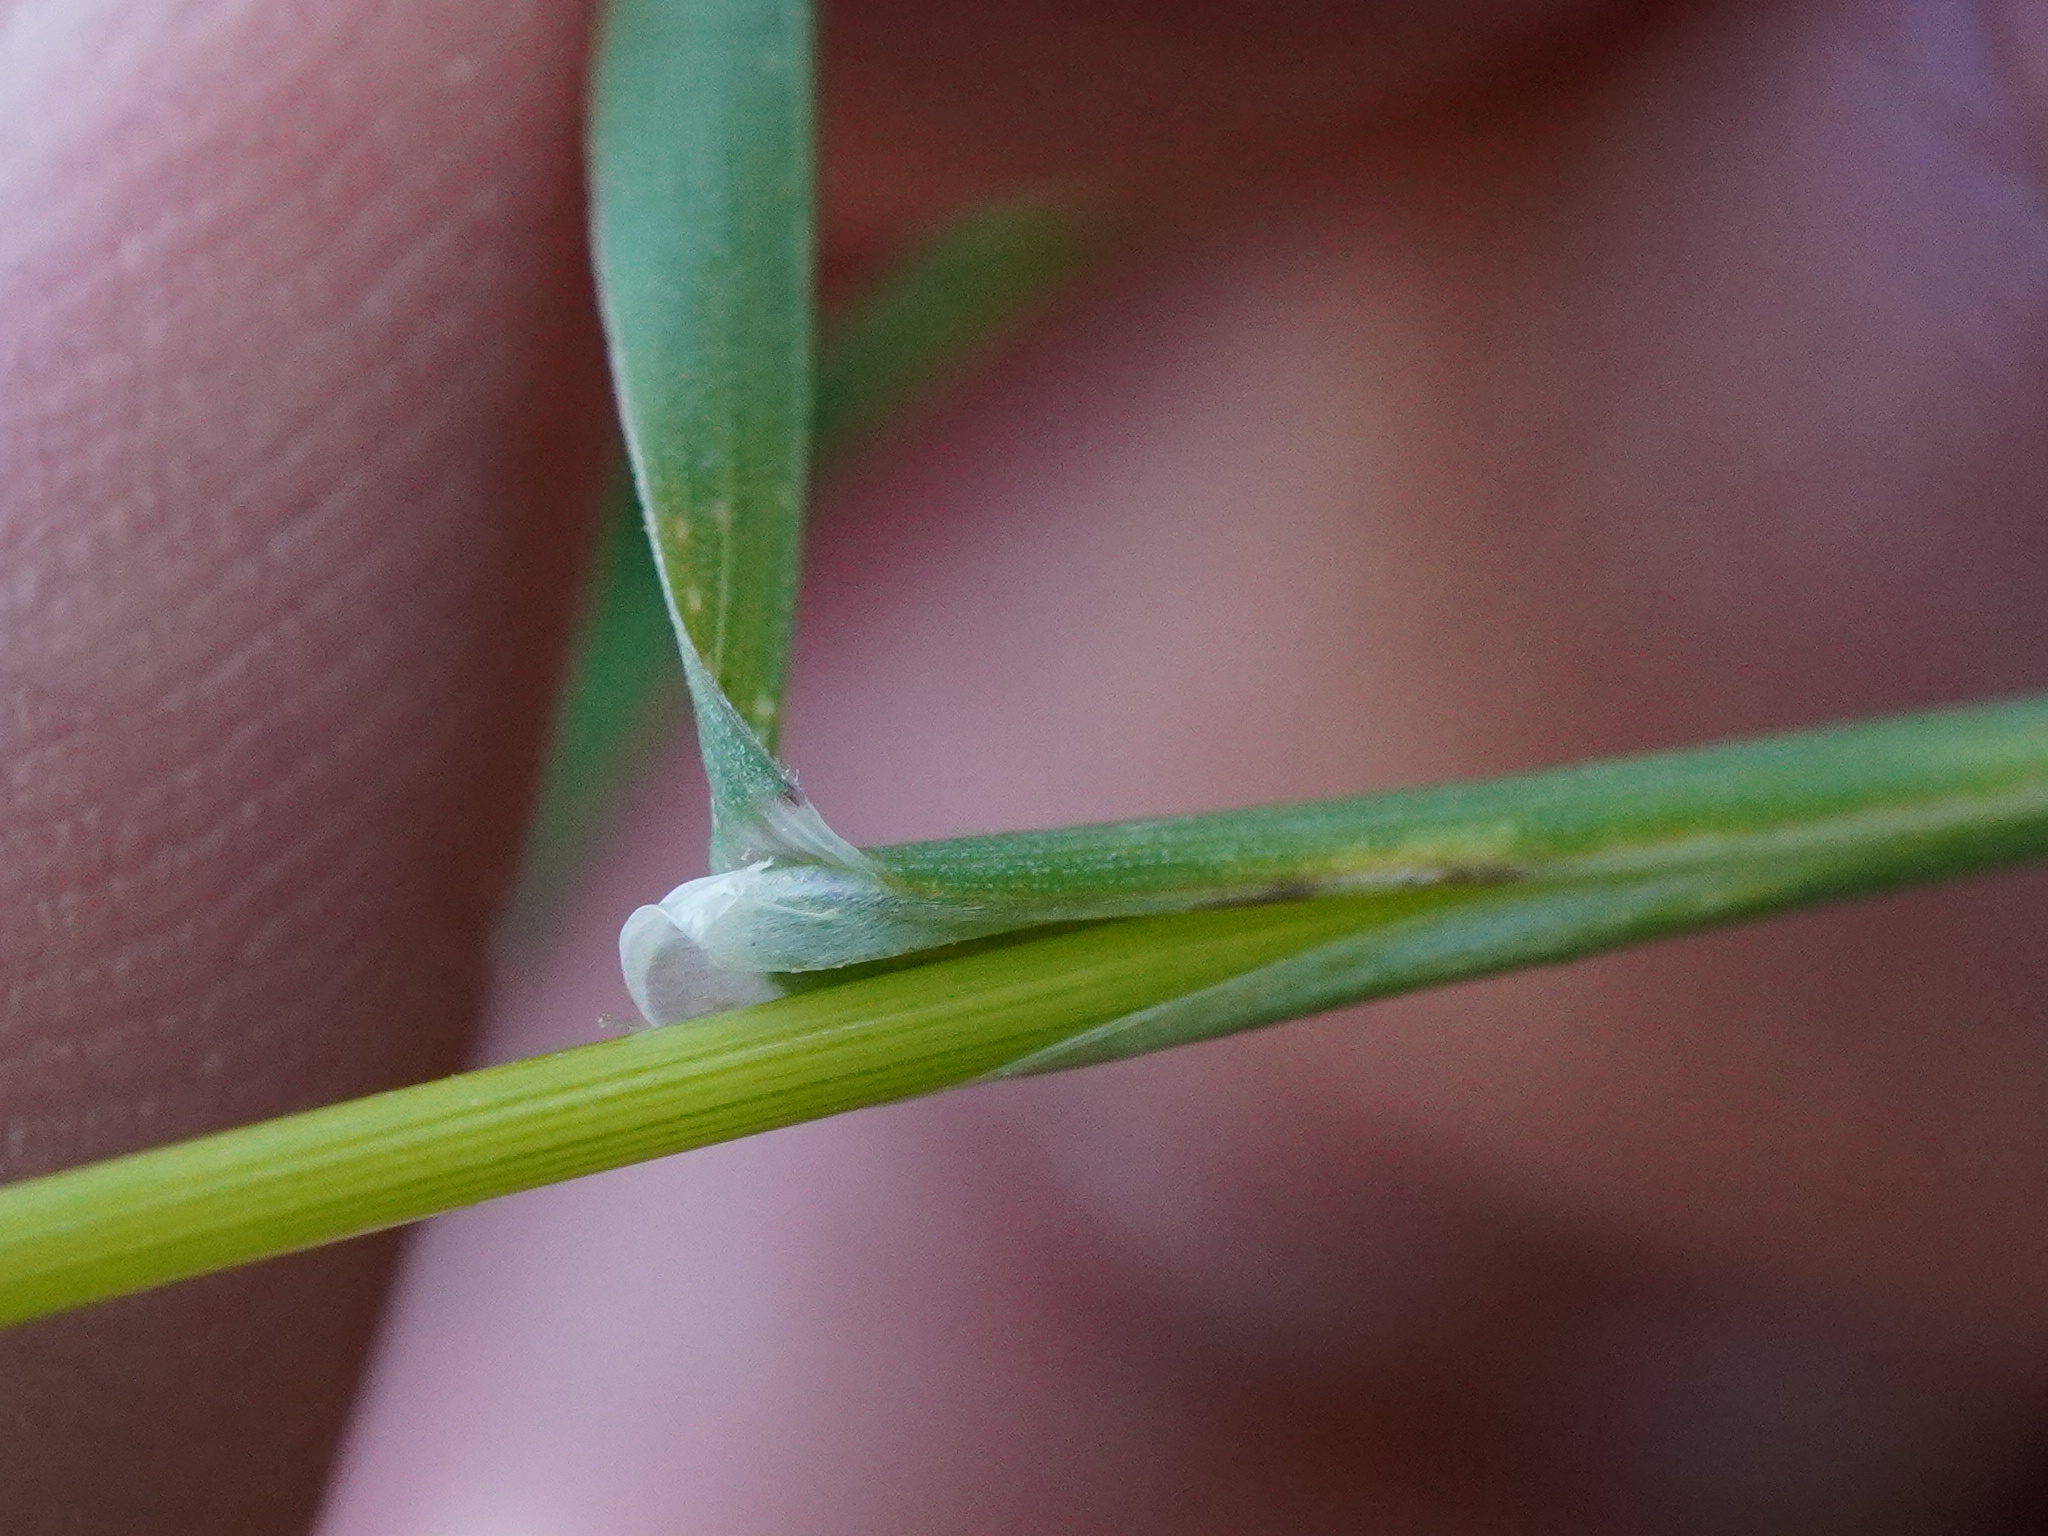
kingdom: Plantae
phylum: Tracheophyta
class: Liliopsida
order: Poales
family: Poaceae
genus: Poa
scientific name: Poa alpina
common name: Alpine bluegrass
